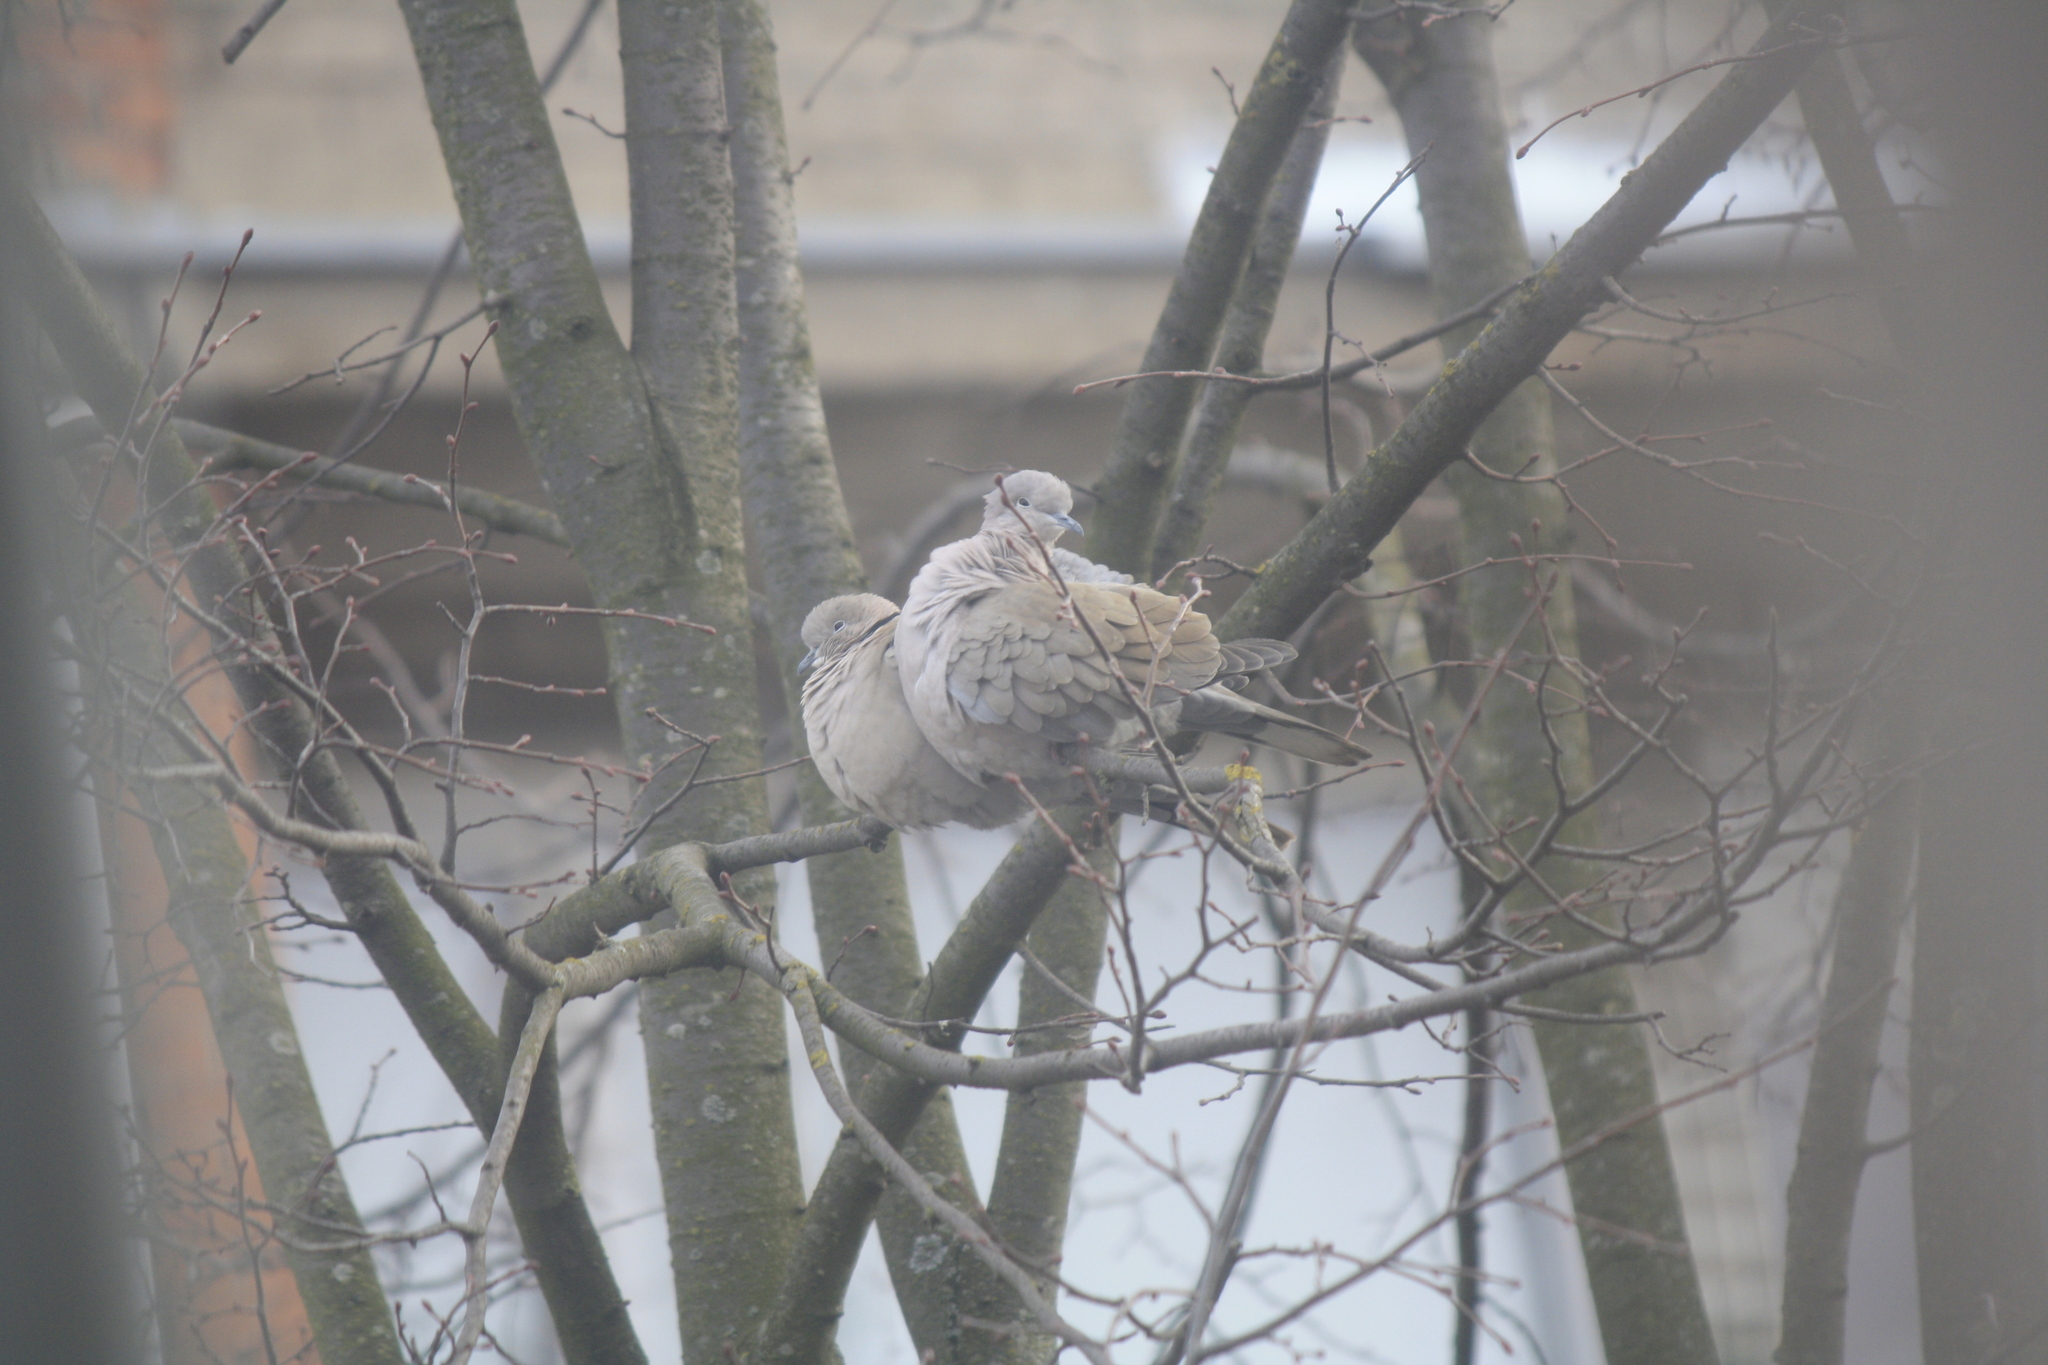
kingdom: Animalia
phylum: Chordata
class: Aves
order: Columbiformes
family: Columbidae
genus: Streptopelia
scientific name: Streptopelia decaocto
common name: Eurasian collared dove
